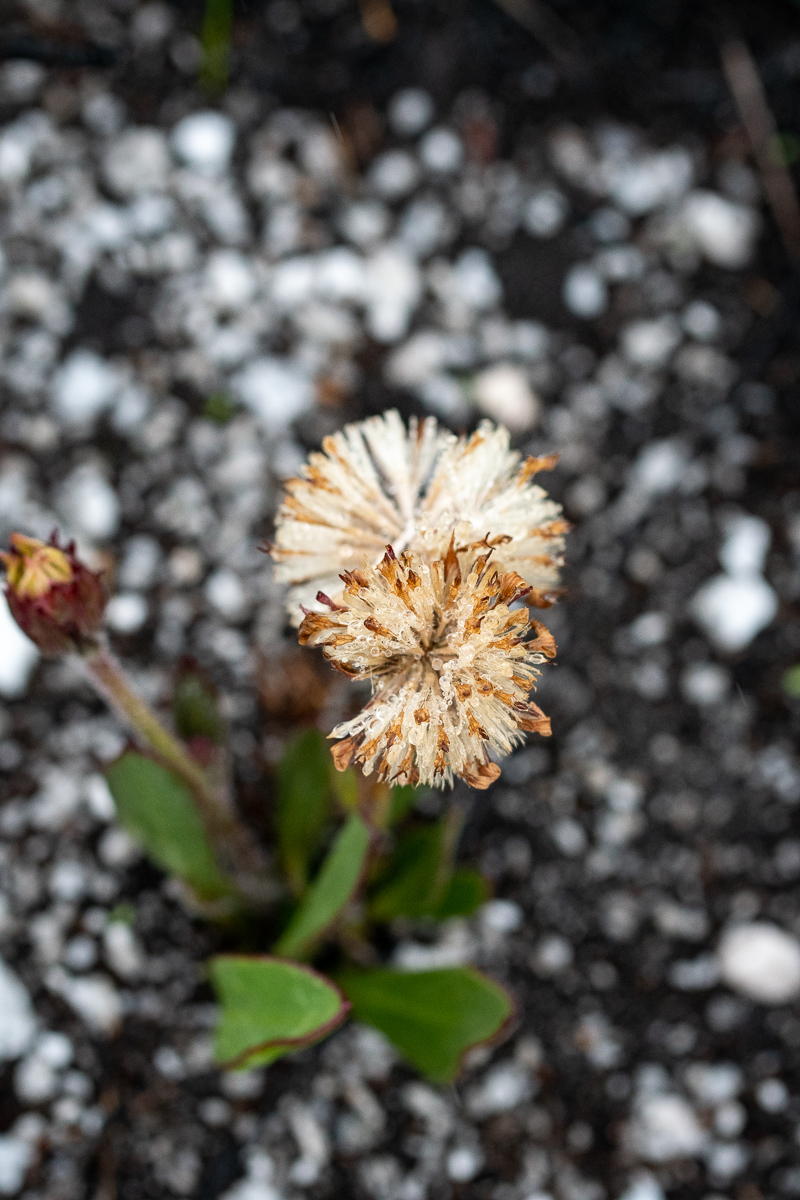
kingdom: Plantae
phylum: Tracheophyta
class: Magnoliopsida
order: Asterales
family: Asteraceae
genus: Mairia
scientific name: Mairia coriacea
